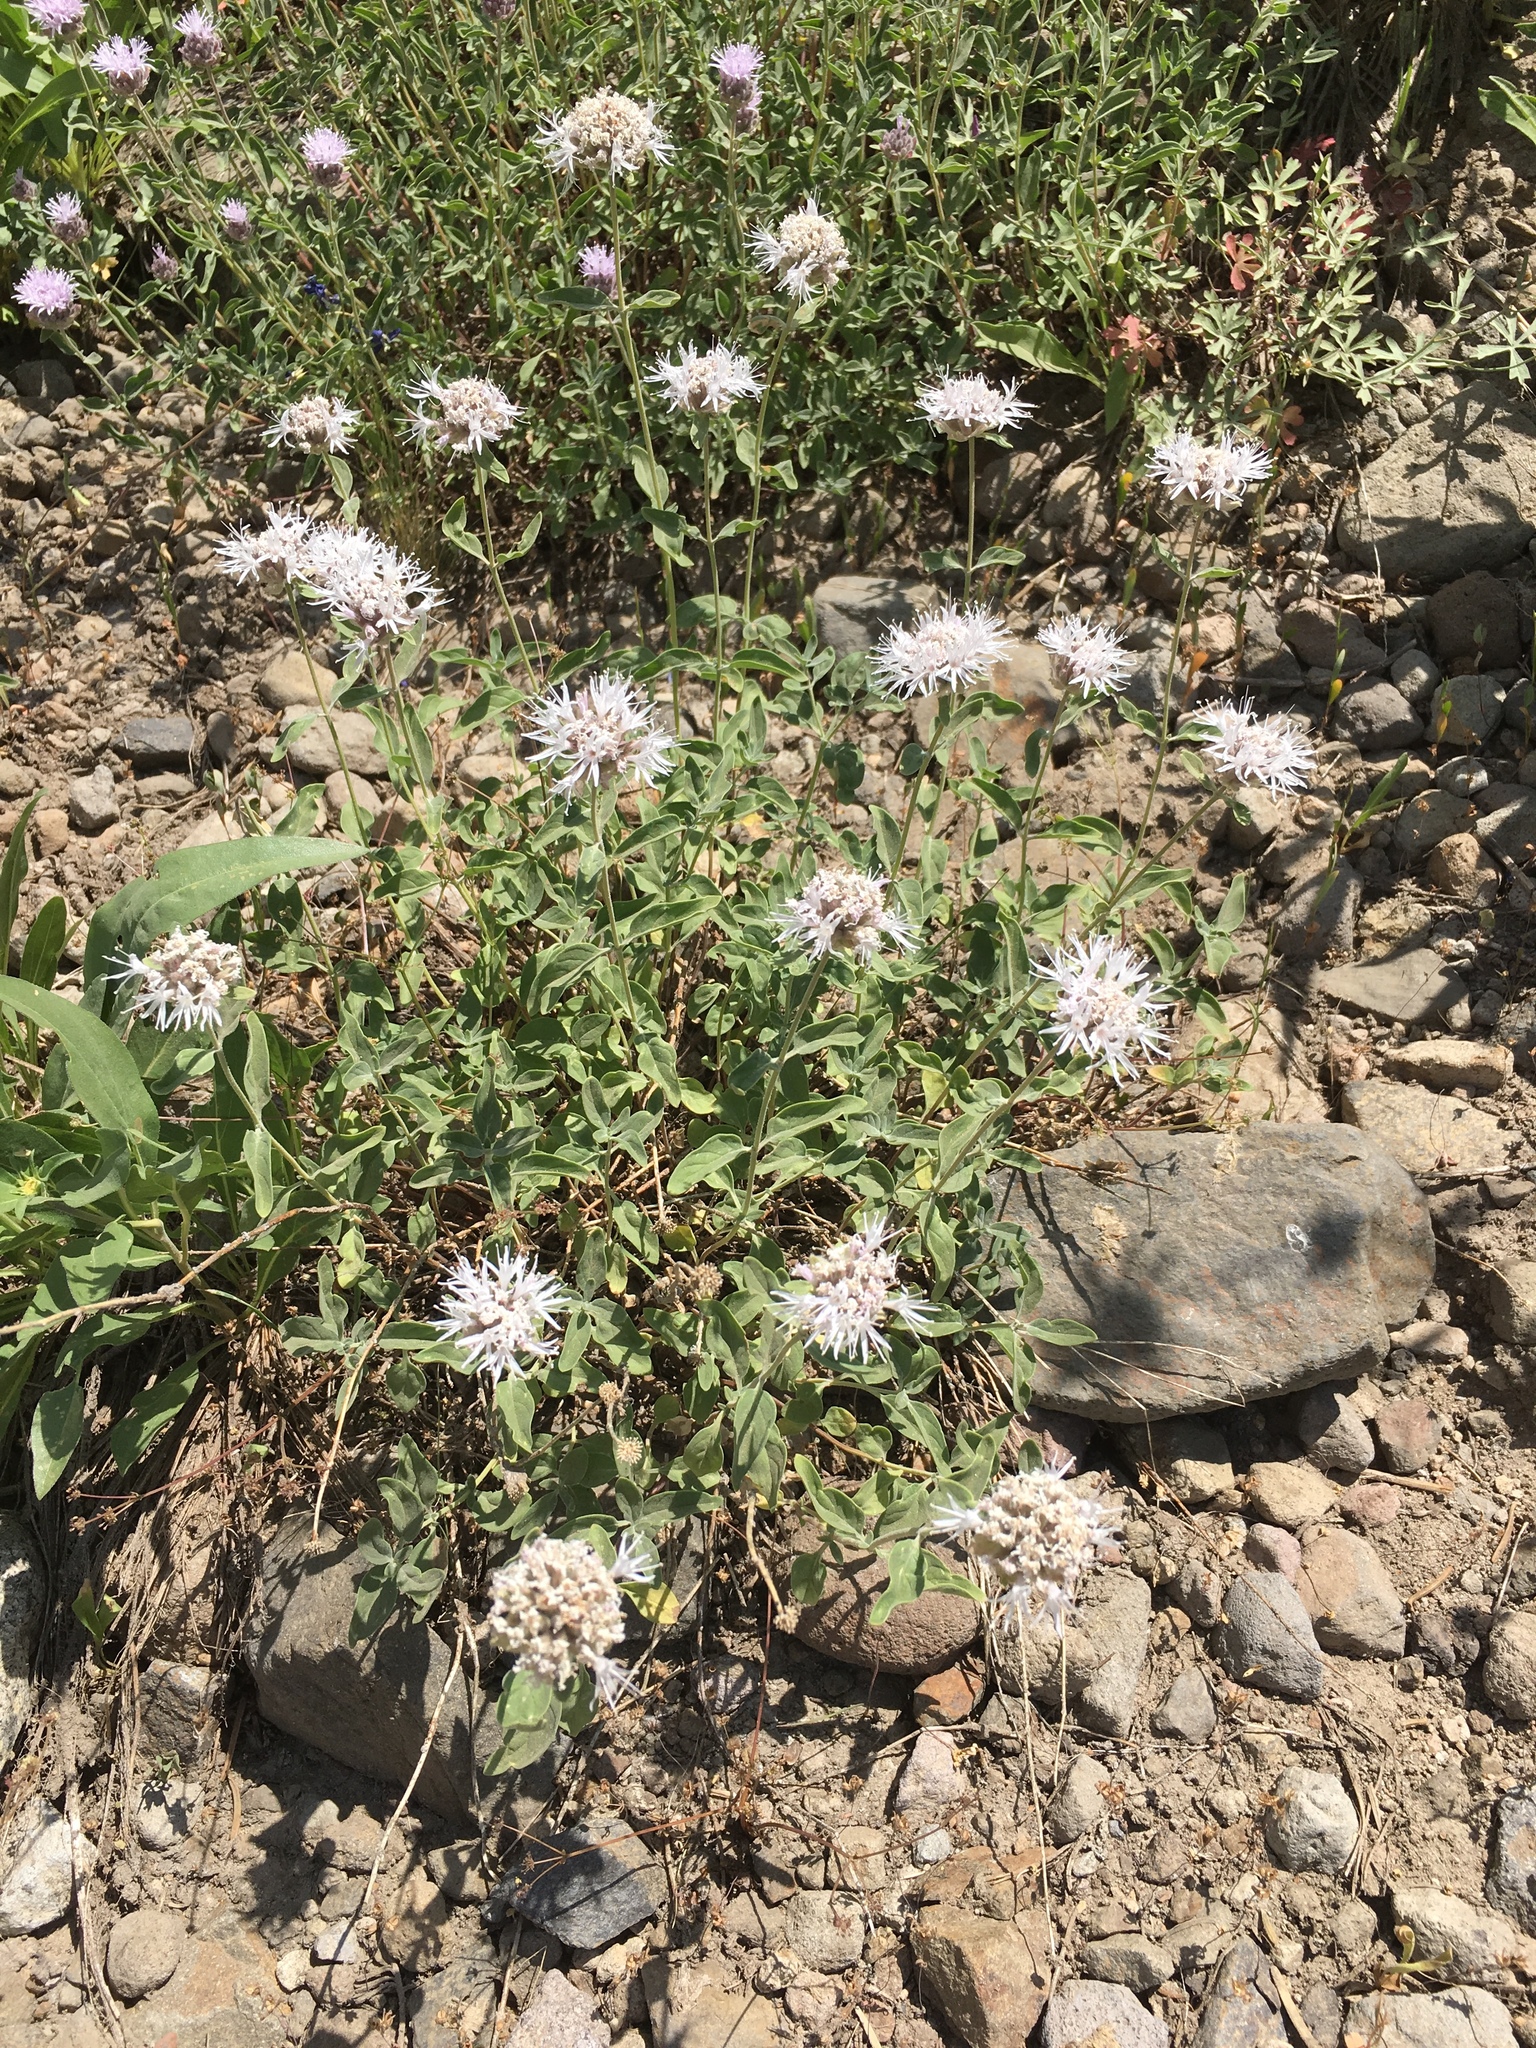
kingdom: Plantae
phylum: Tracheophyta
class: Magnoliopsida
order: Lamiales
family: Lamiaceae
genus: Monardella
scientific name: Monardella odoratissima
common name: Pacific monardella
